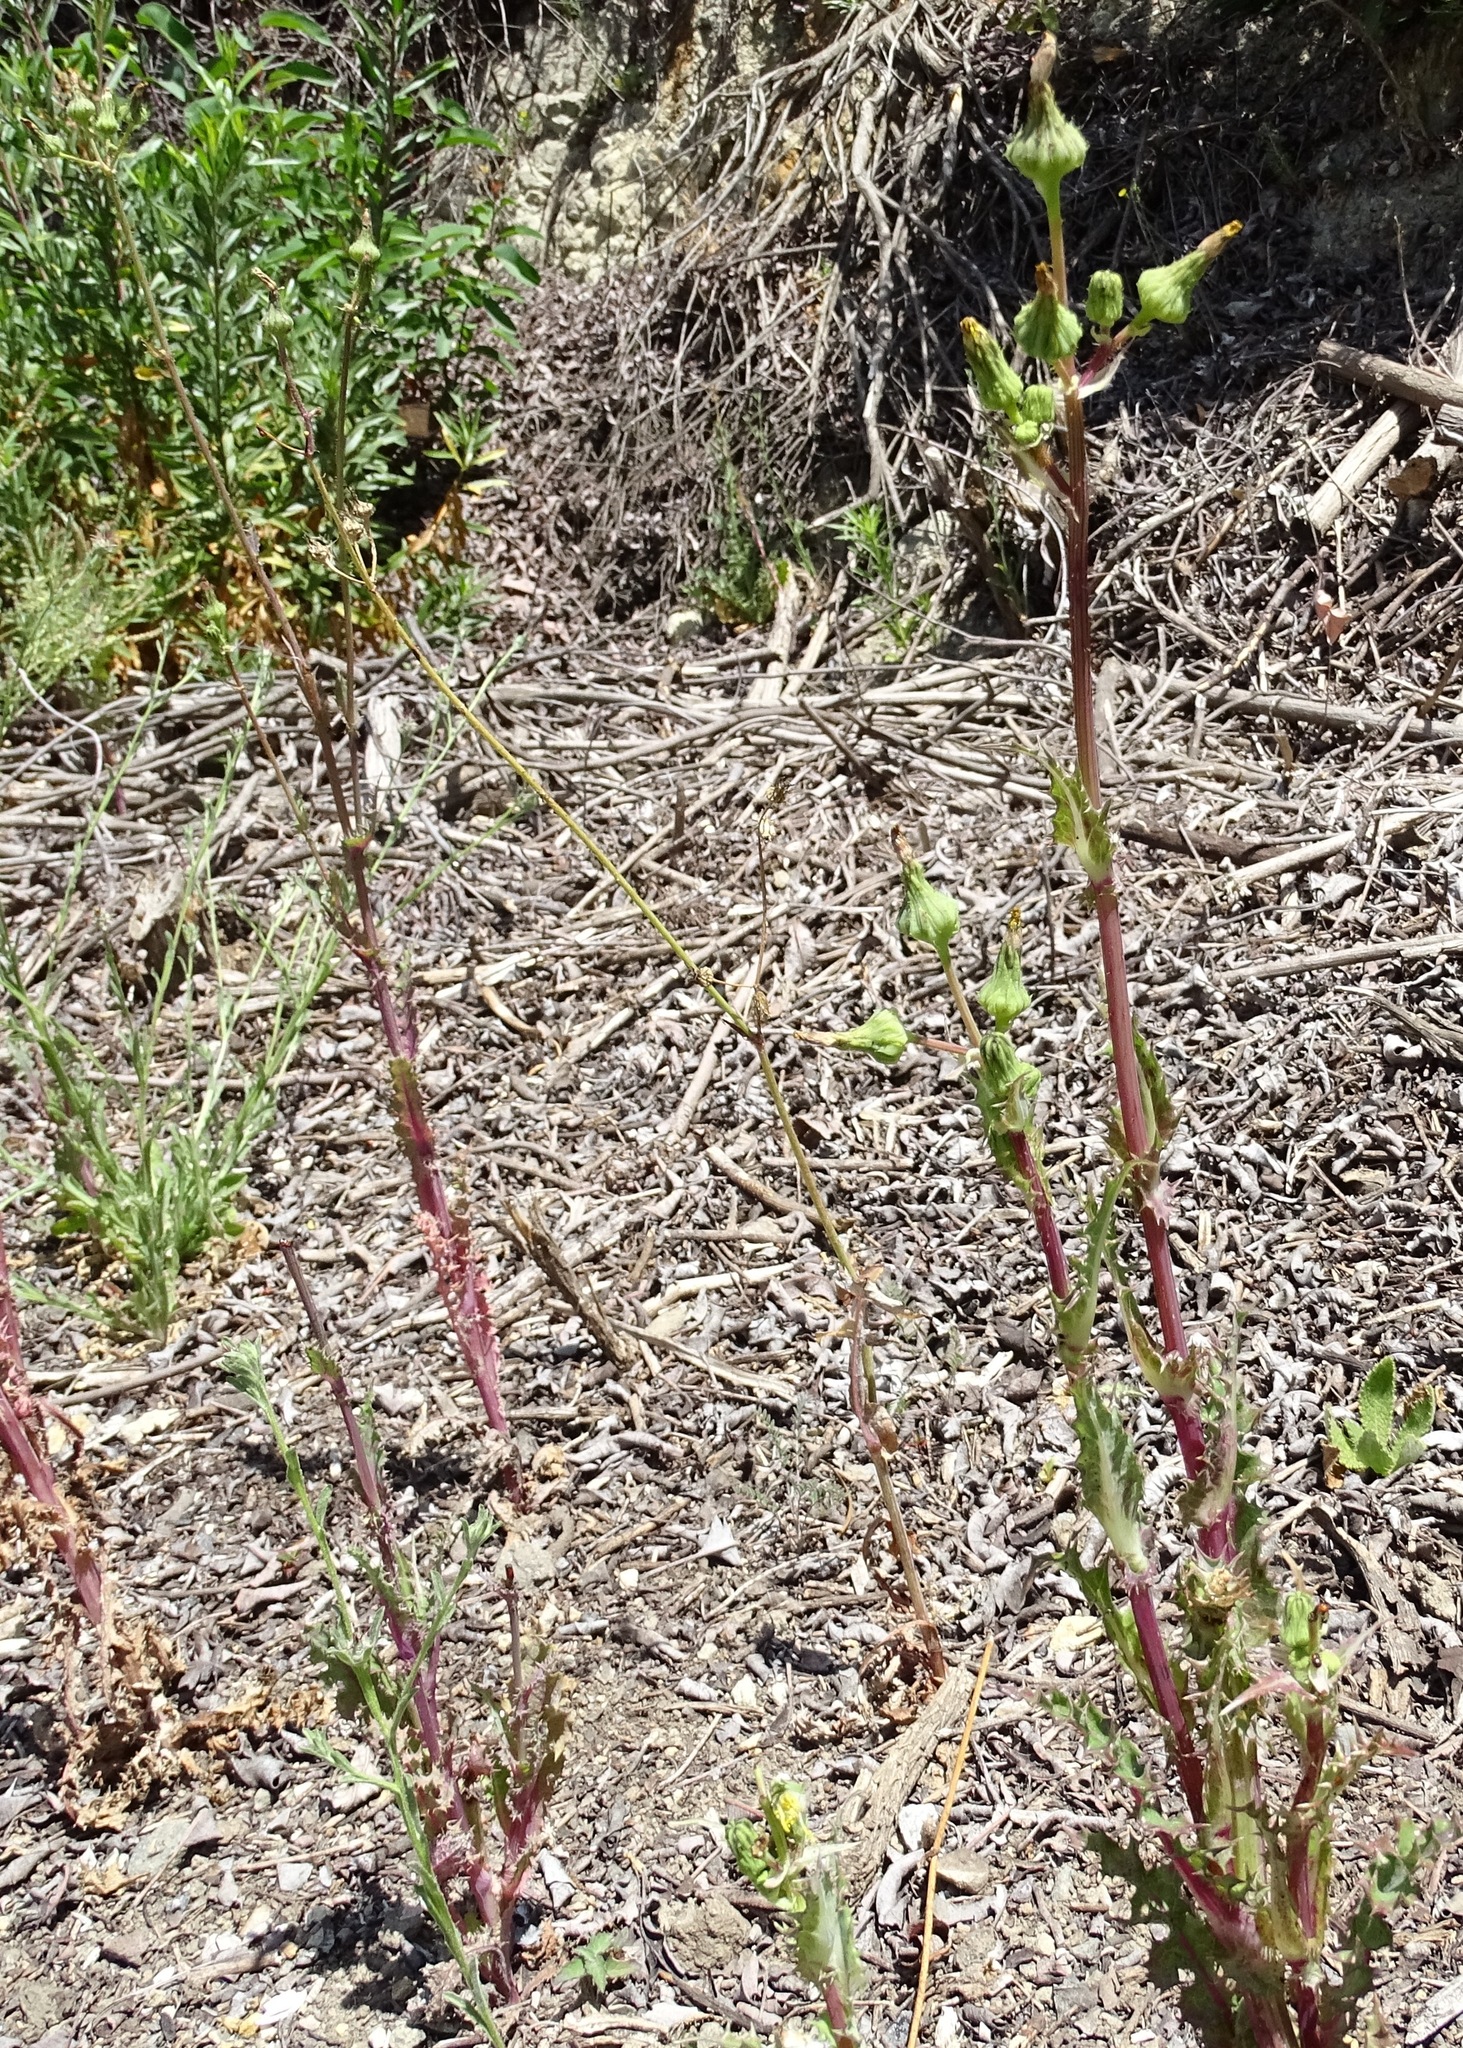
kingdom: Plantae
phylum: Tracheophyta
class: Magnoliopsida
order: Asterales
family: Asteraceae
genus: Sonchus
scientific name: Sonchus asper
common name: Prickly sow-thistle
